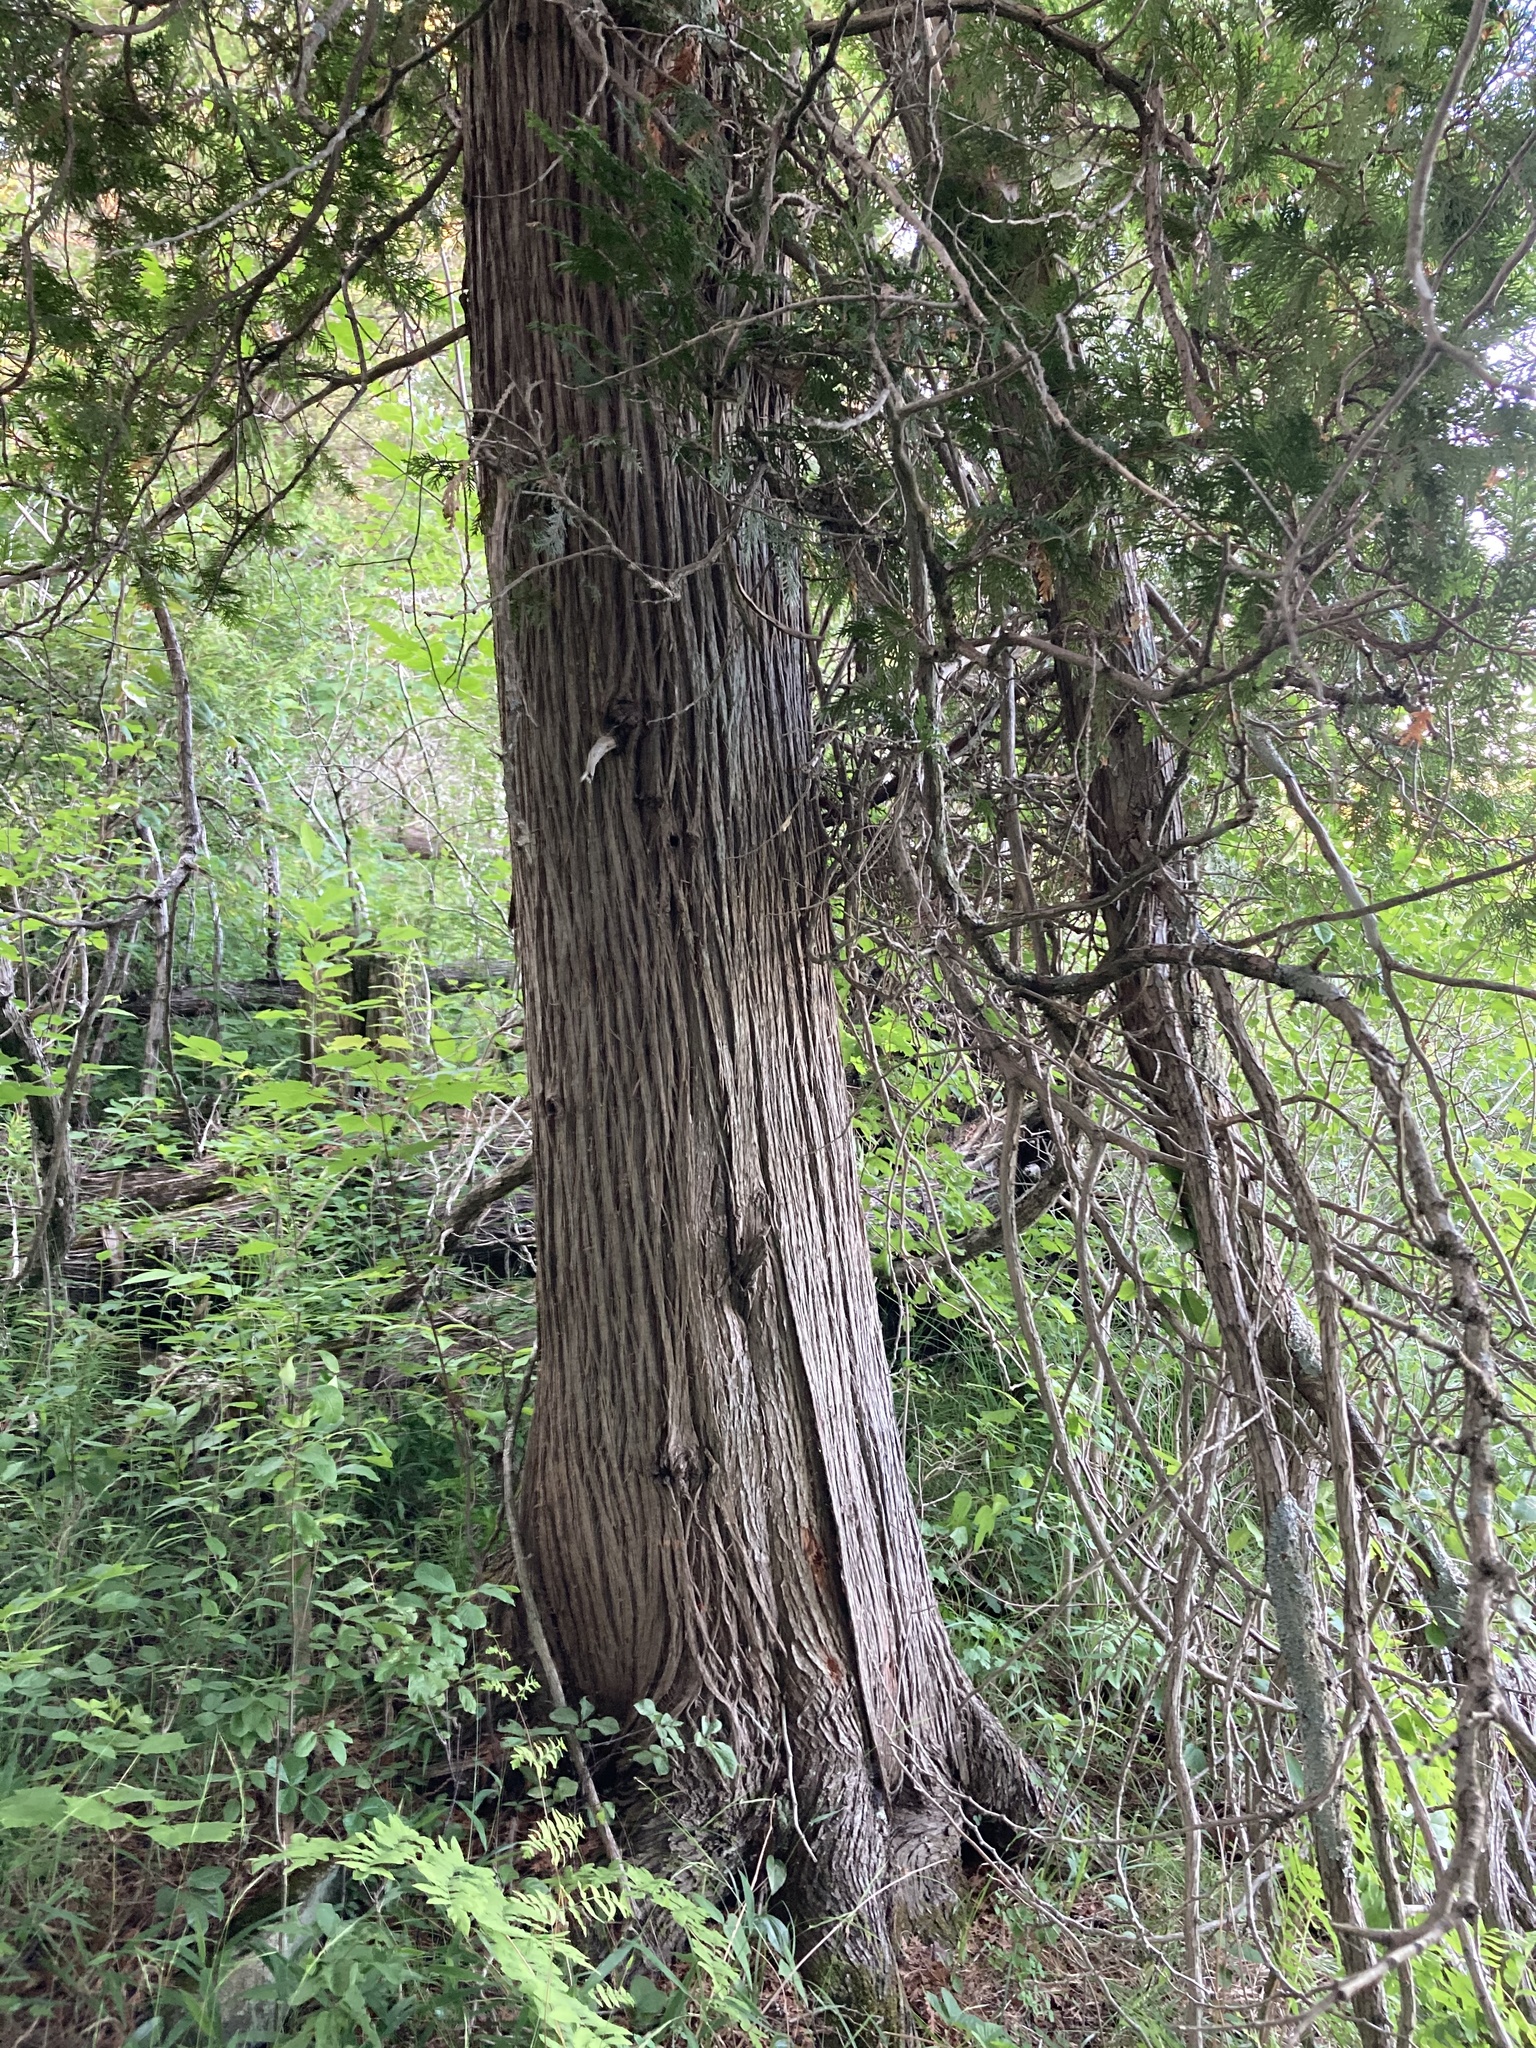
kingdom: Plantae
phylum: Tracheophyta
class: Pinopsida
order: Pinales
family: Cupressaceae
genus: Thuja
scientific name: Thuja occidentalis
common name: Northern white-cedar
